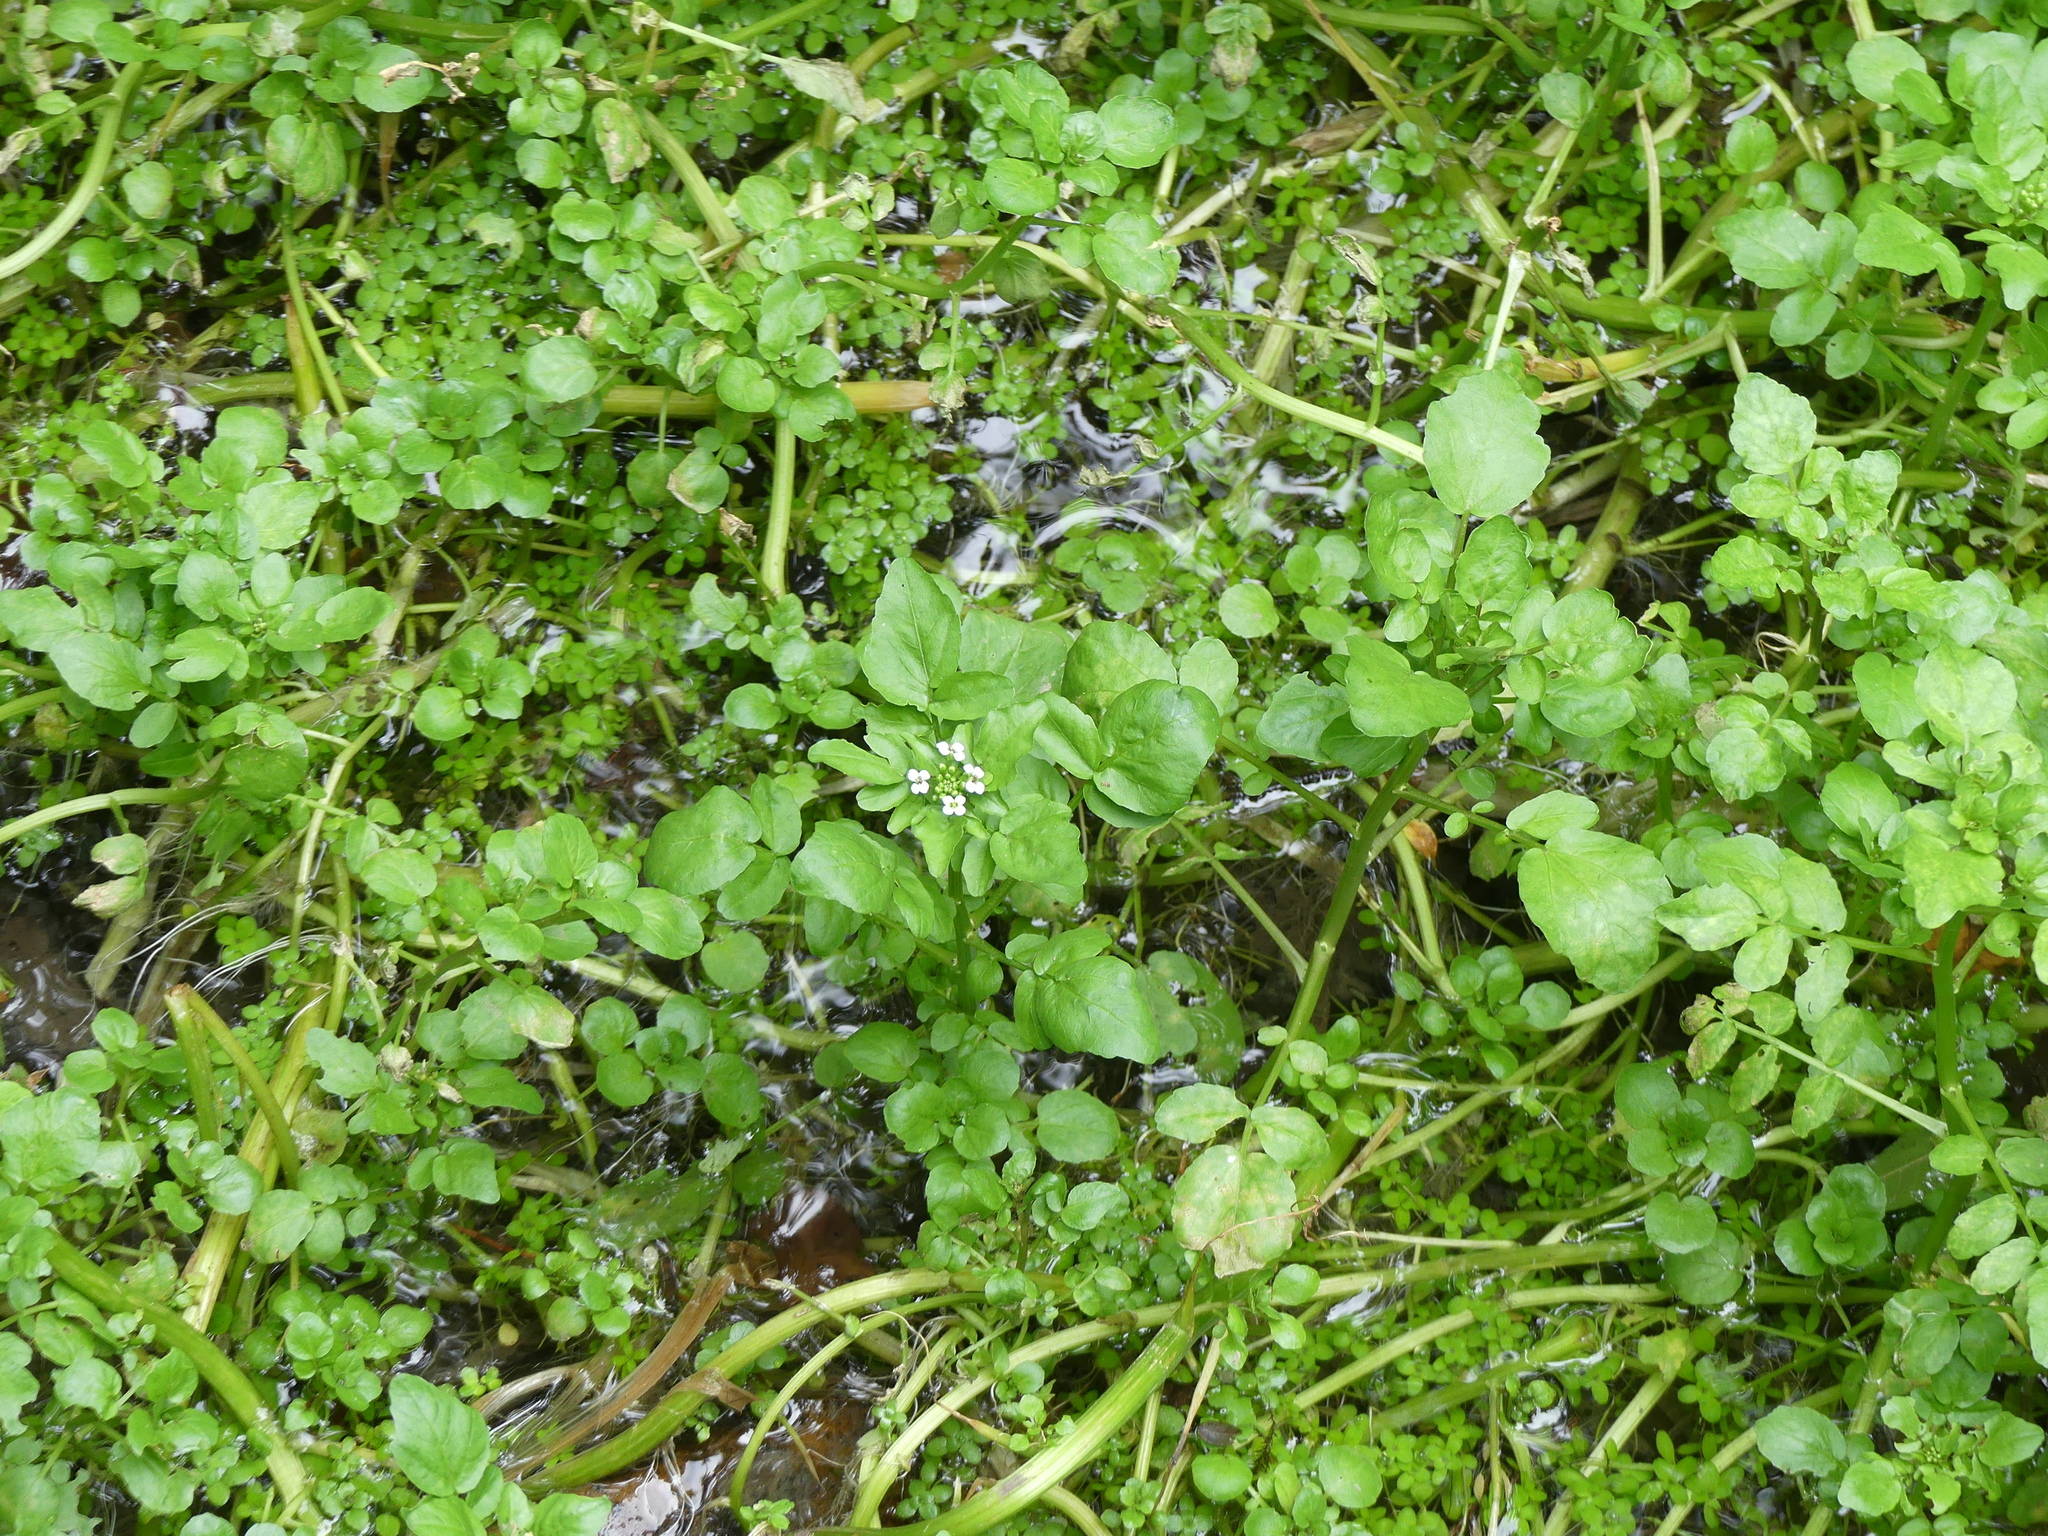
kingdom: Plantae
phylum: Tracheophyta
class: Magnoliopsida
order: Brassicales
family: Brassicaceae
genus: Nasturtium
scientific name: Nasturtium officinale
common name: Watercress
